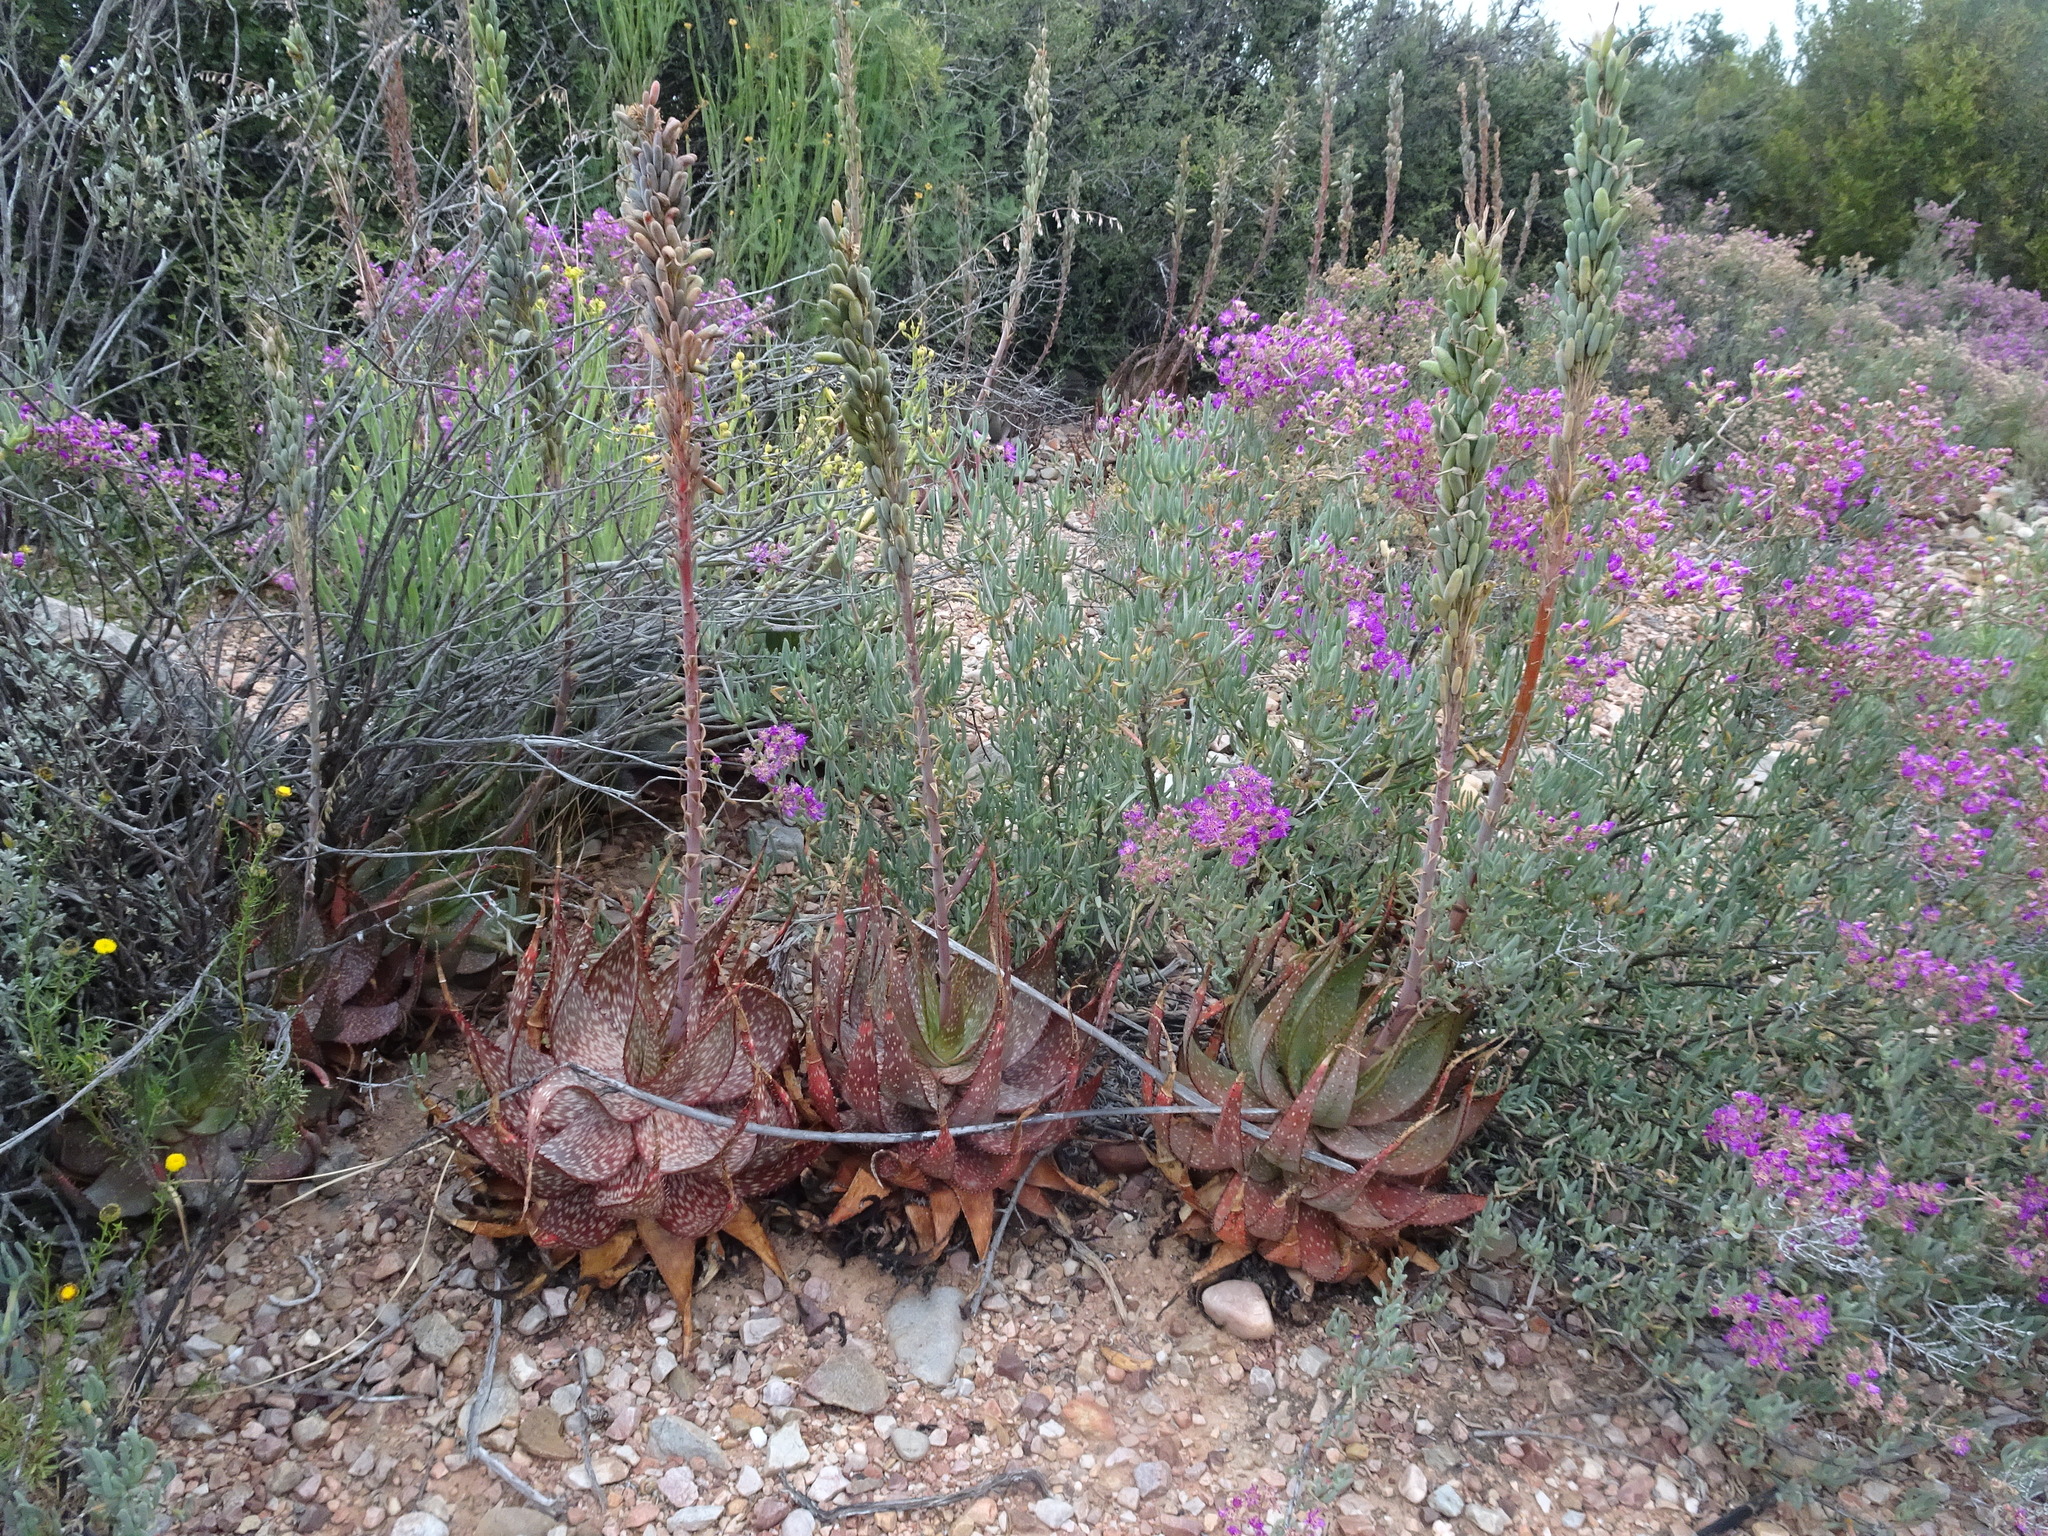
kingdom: Plantae
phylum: Tracheophyta
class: Liliopsida
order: Asparagales
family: Asphodelaceae
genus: Aloe
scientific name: Aloe microstigma
